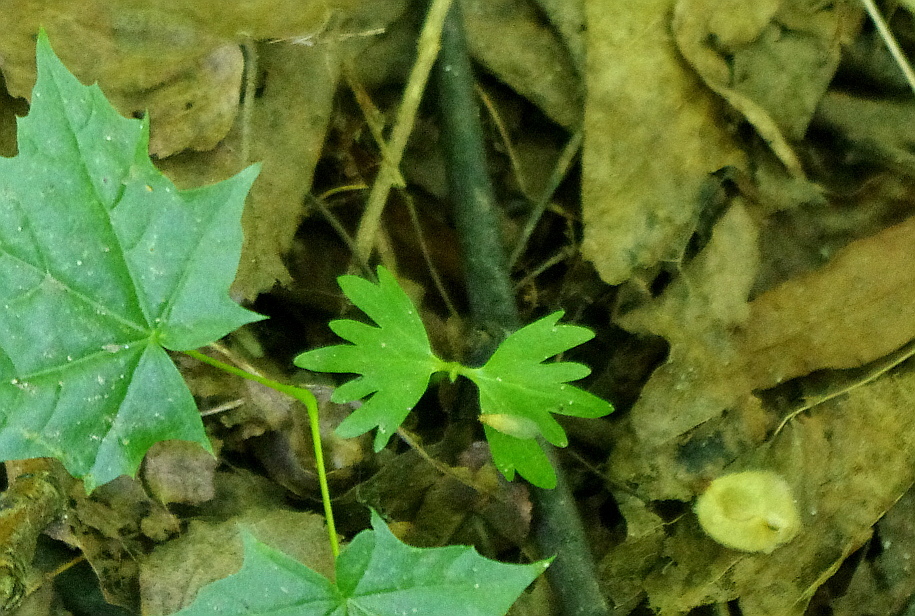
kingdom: Plantae
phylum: Tracheophyta
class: Magnoliopsida
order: Malvales
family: Malvaceae
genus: Tilia
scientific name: Tilia cordata
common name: Small-leaved lime
